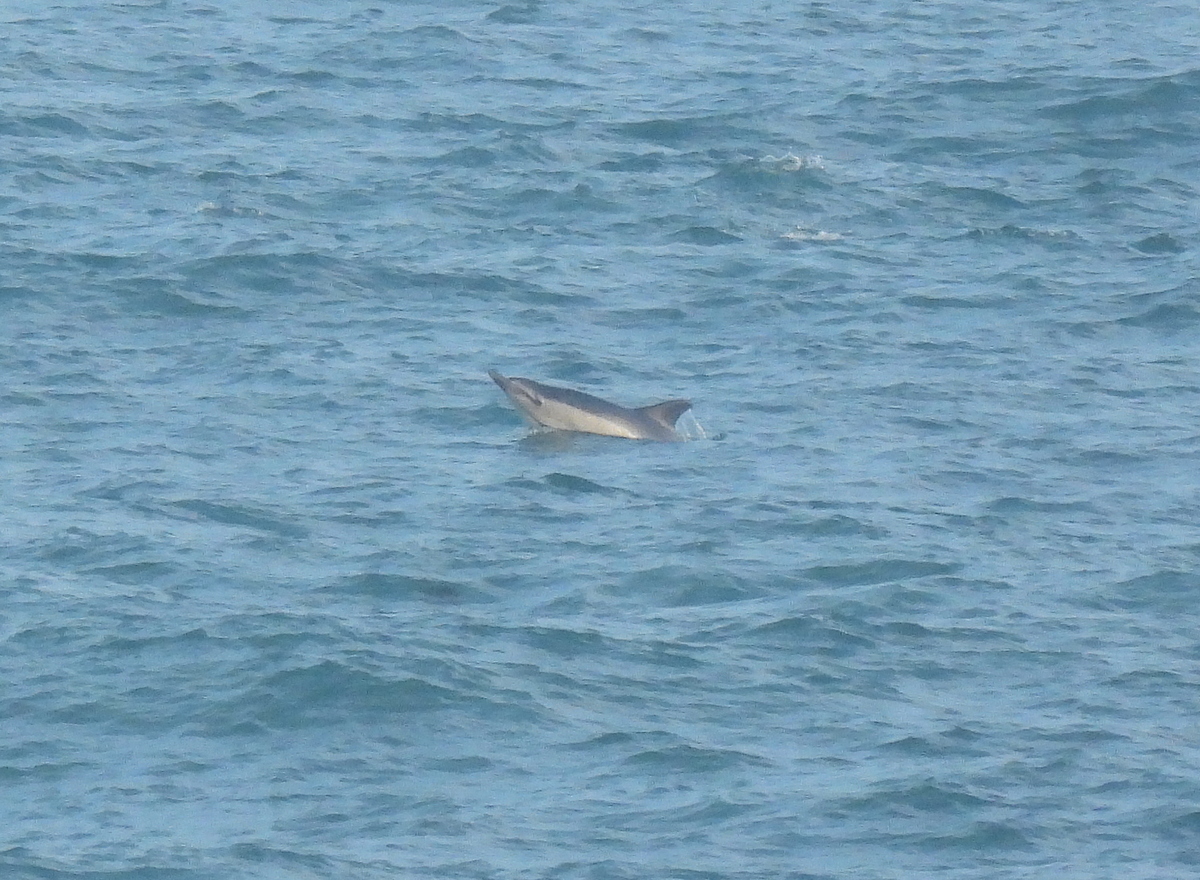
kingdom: Animalia
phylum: Chordata
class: Mammalia
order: Cetacea
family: Delphinidae
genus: Delphinus
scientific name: Delphinus delphis
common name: Common dolphin
